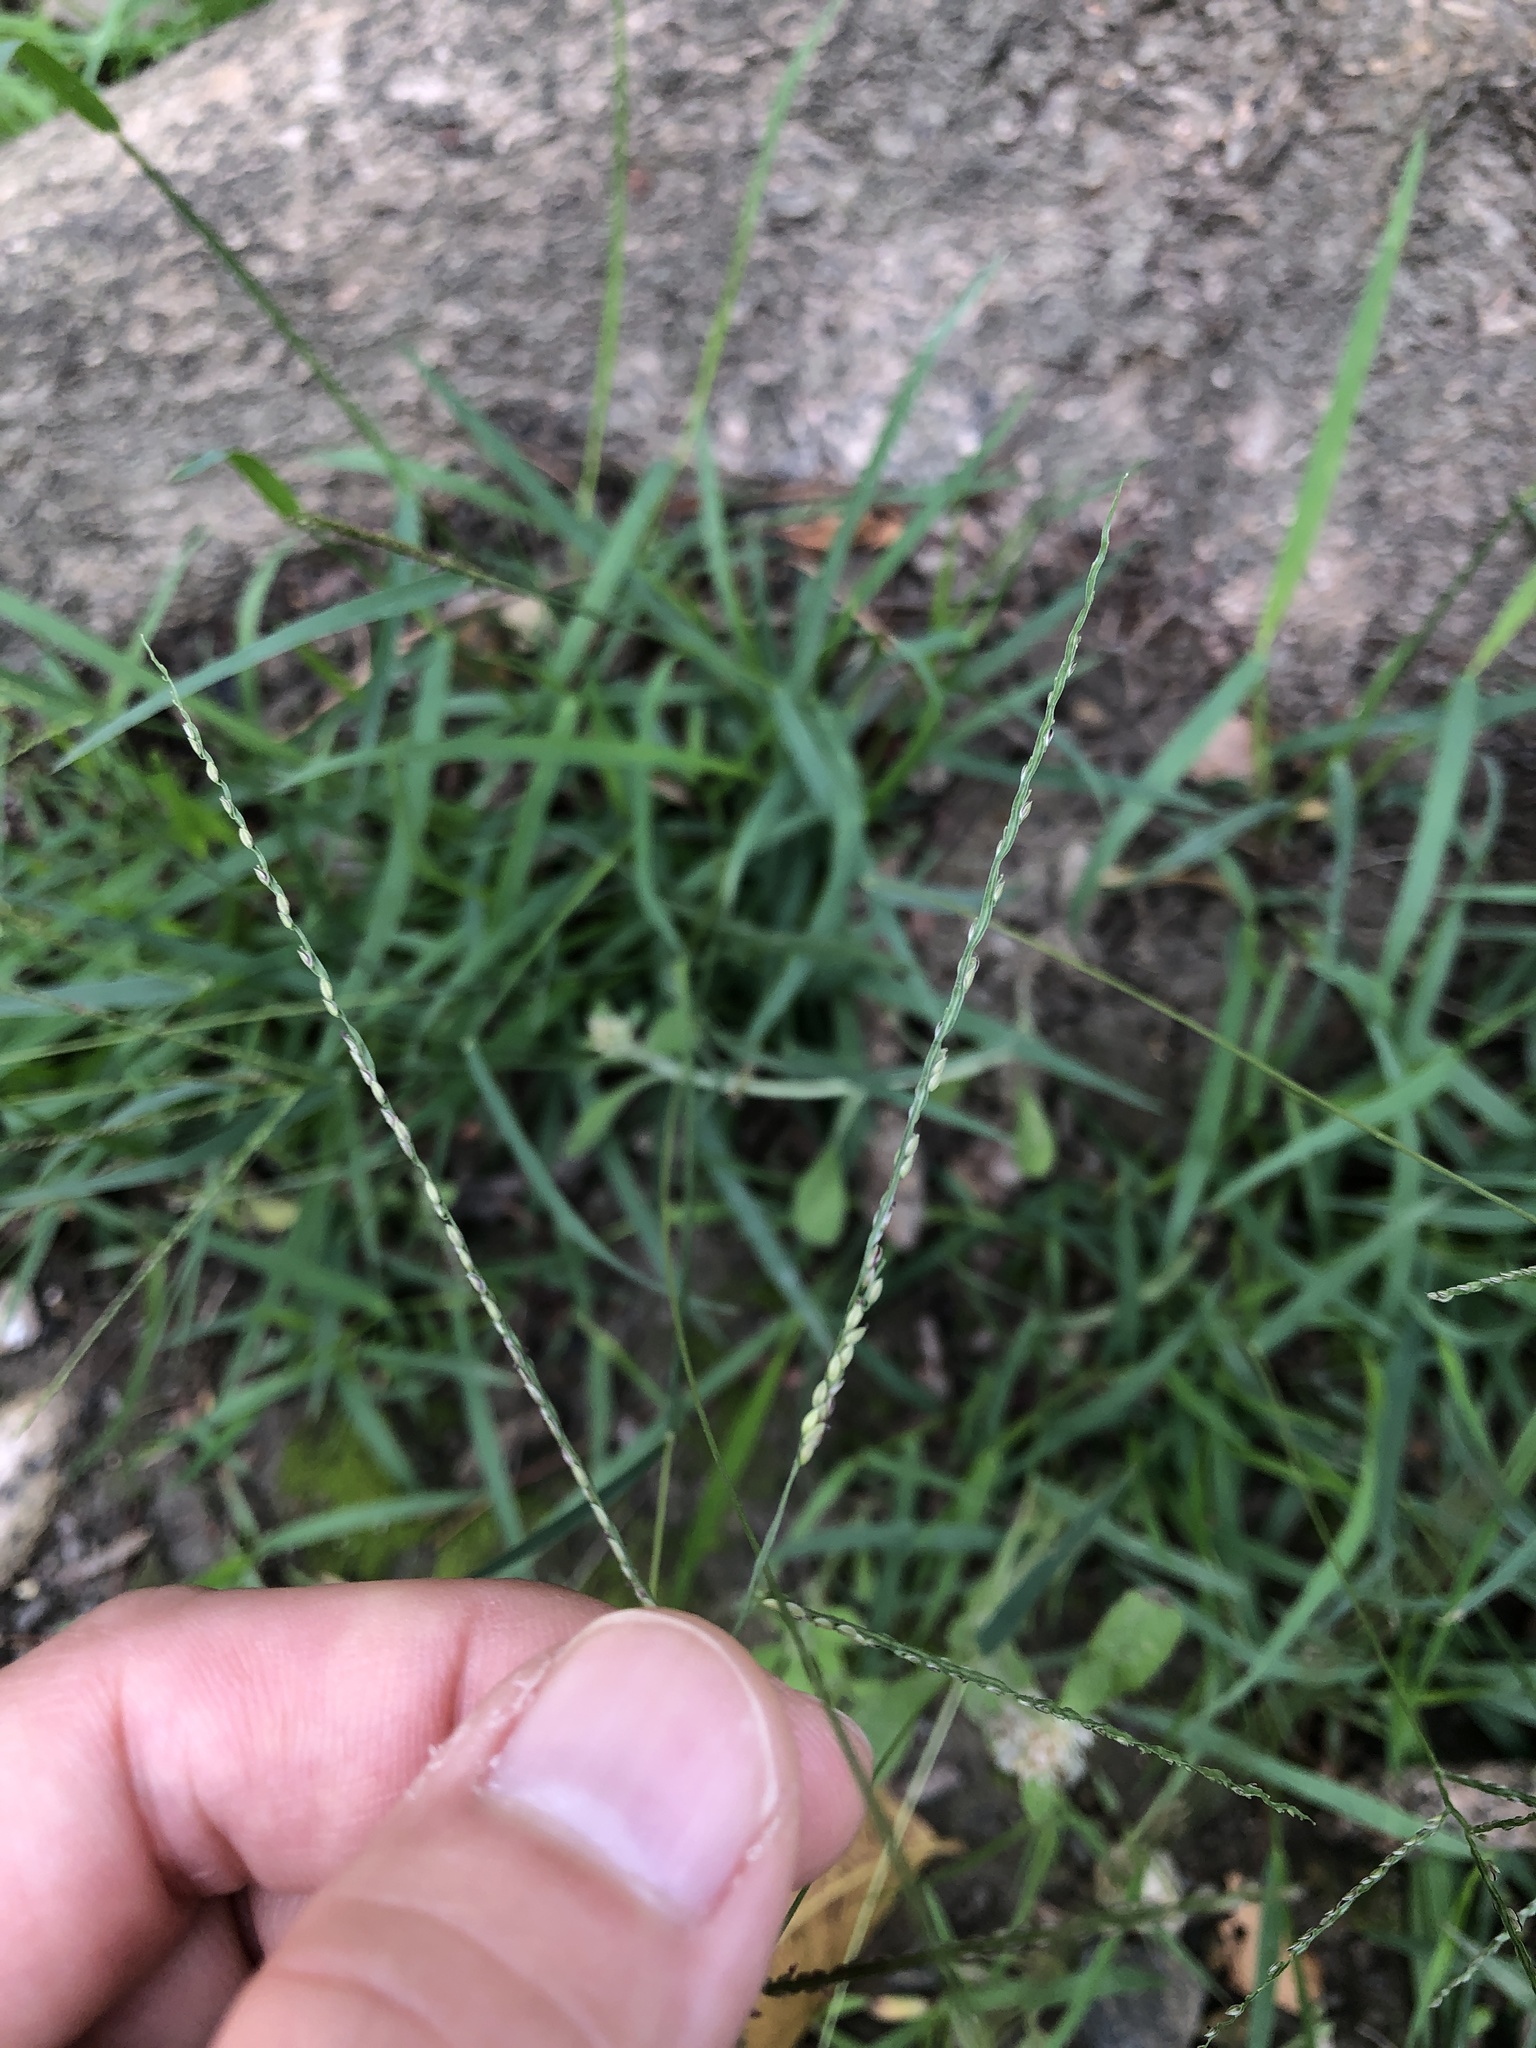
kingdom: Plantae
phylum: Tracheophyta
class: Liliopsida
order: Poales
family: Poaceae
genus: Digitaria
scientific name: Digitaria violascens
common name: Violet crabgrass
